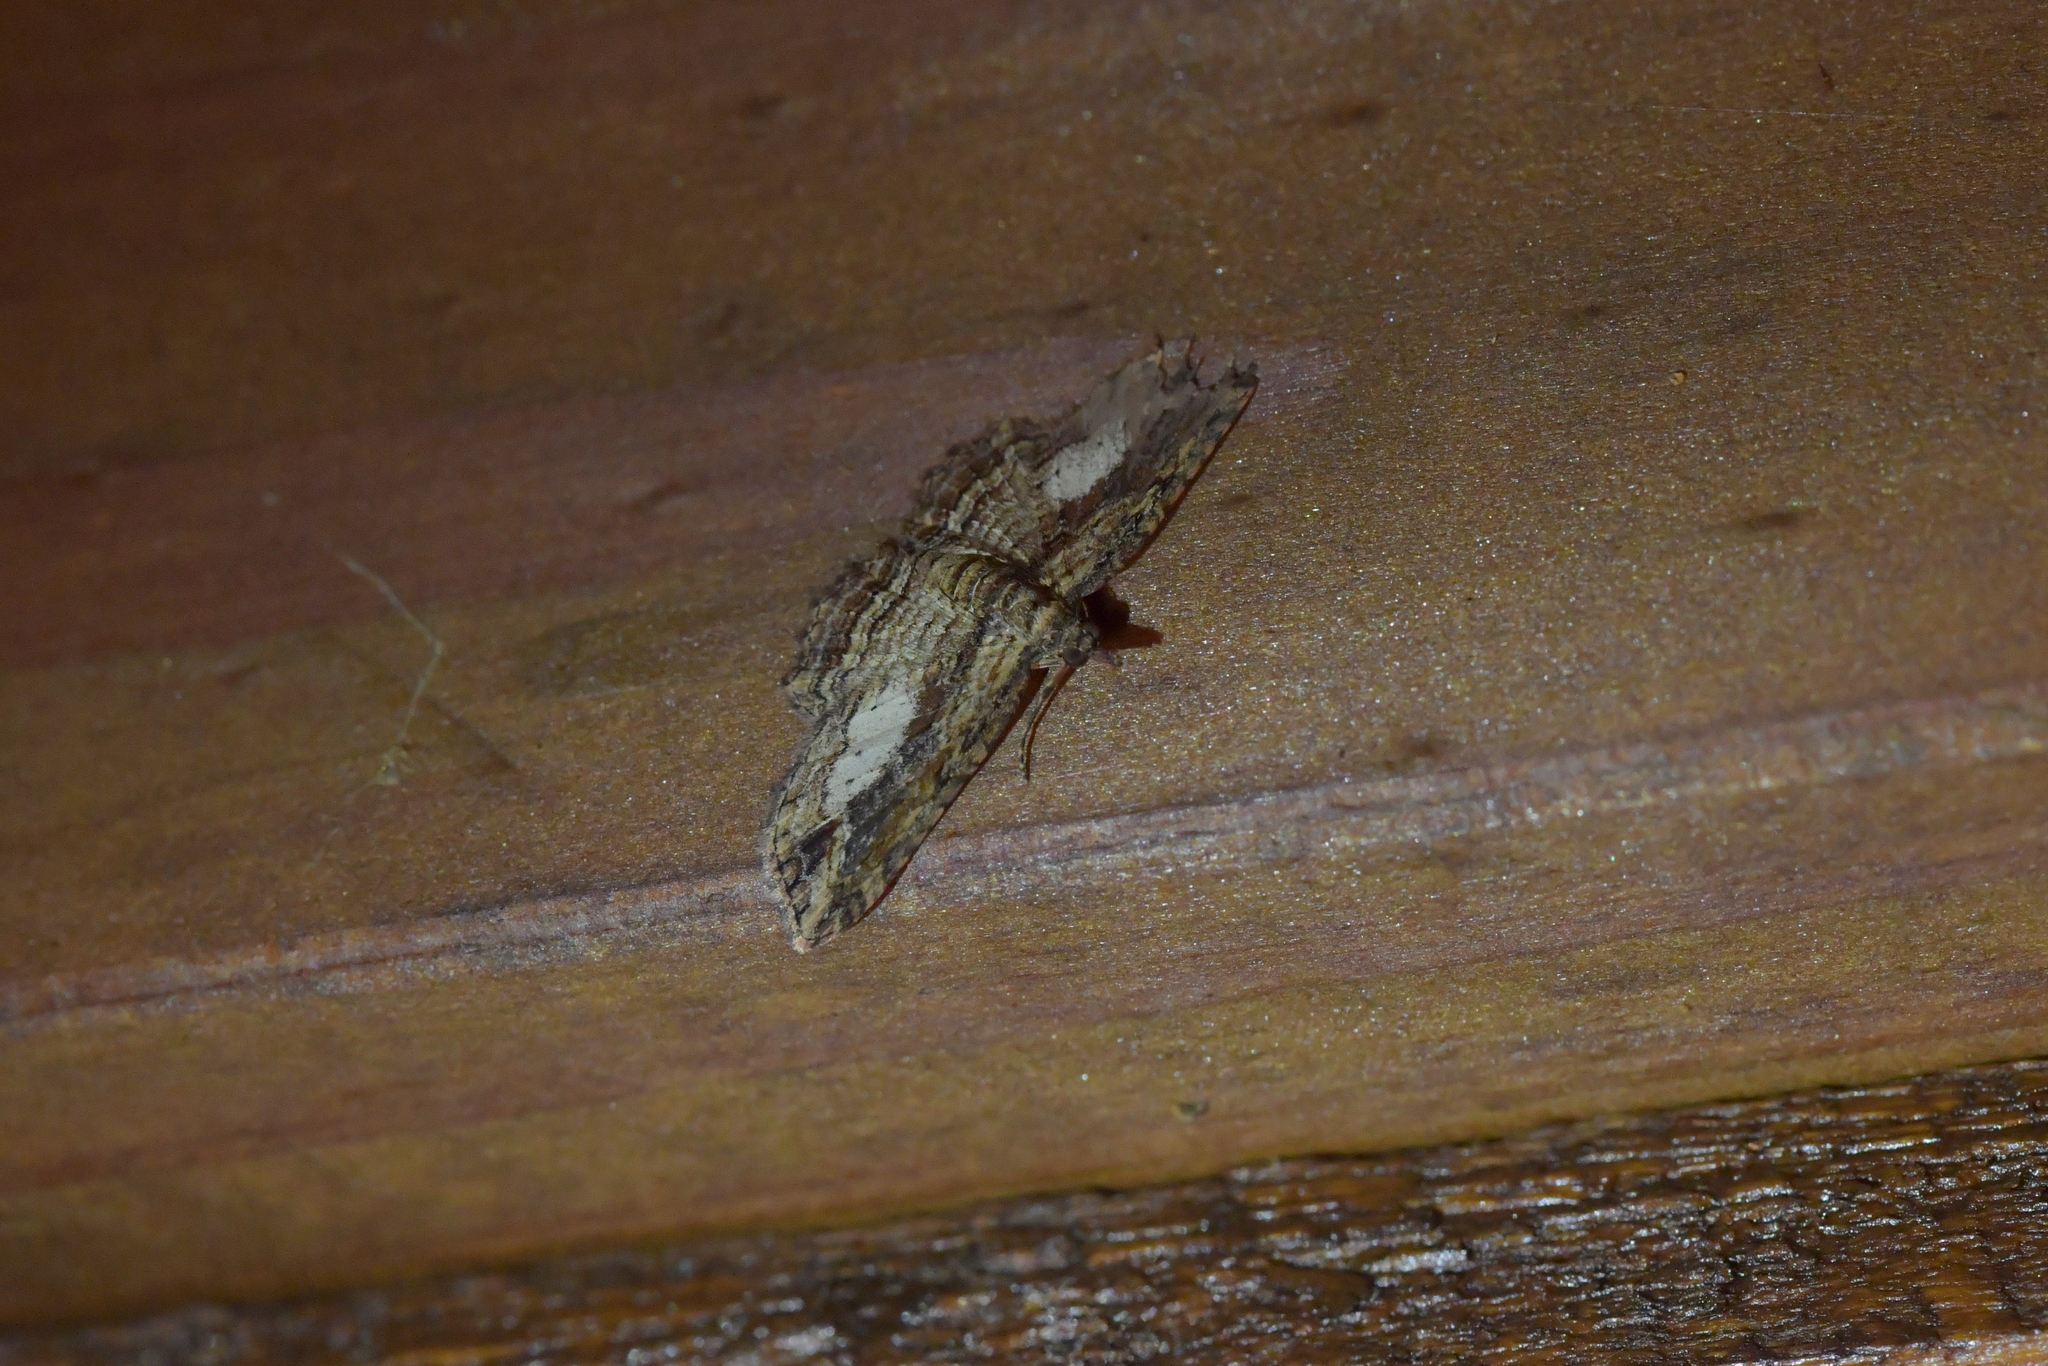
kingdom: Animalia
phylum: Arthropoda
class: Insecta
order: Lepidoptera
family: Geometridae
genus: Chloroclystis
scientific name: Chloroclystis filata
